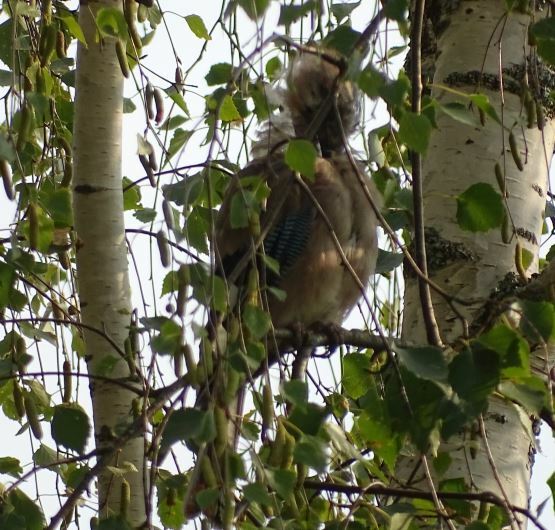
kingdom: Animalia
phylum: Chordata
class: Aves
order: Passeriformes
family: Corvidae
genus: Garrulus
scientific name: Garrulus glandarius
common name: Eurasian jay
